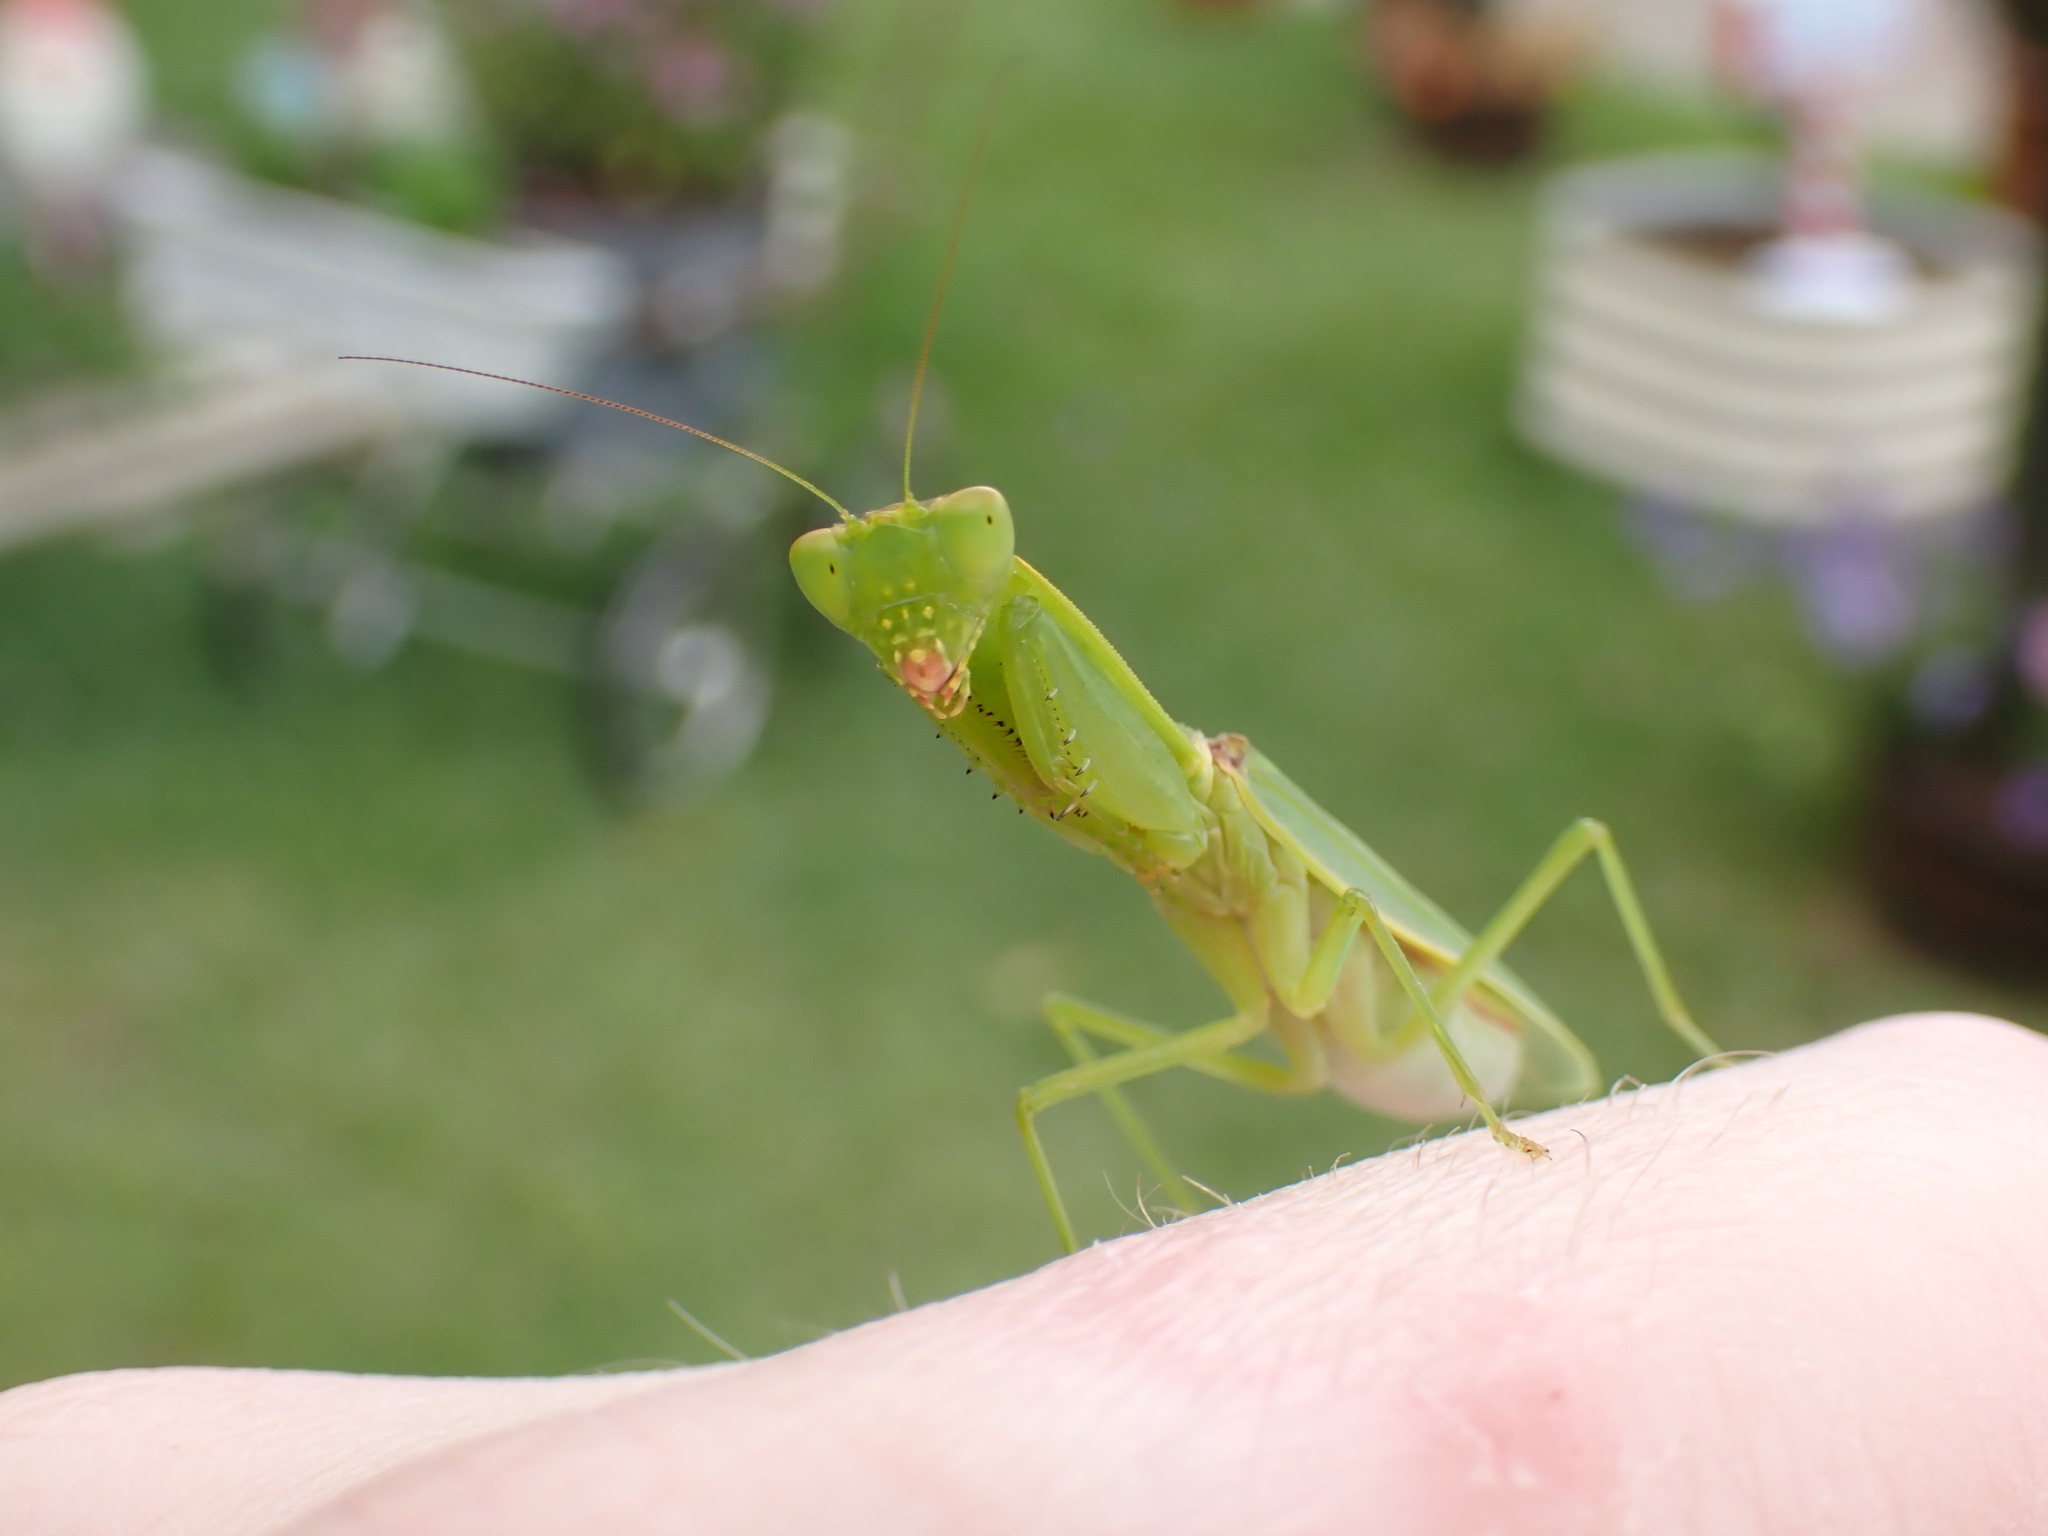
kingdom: Animalia
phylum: Arthropoda
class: Insecta
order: Mantodea
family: Mantidae
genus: Orthodera
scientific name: Orthodera ministralis
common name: Mantis
